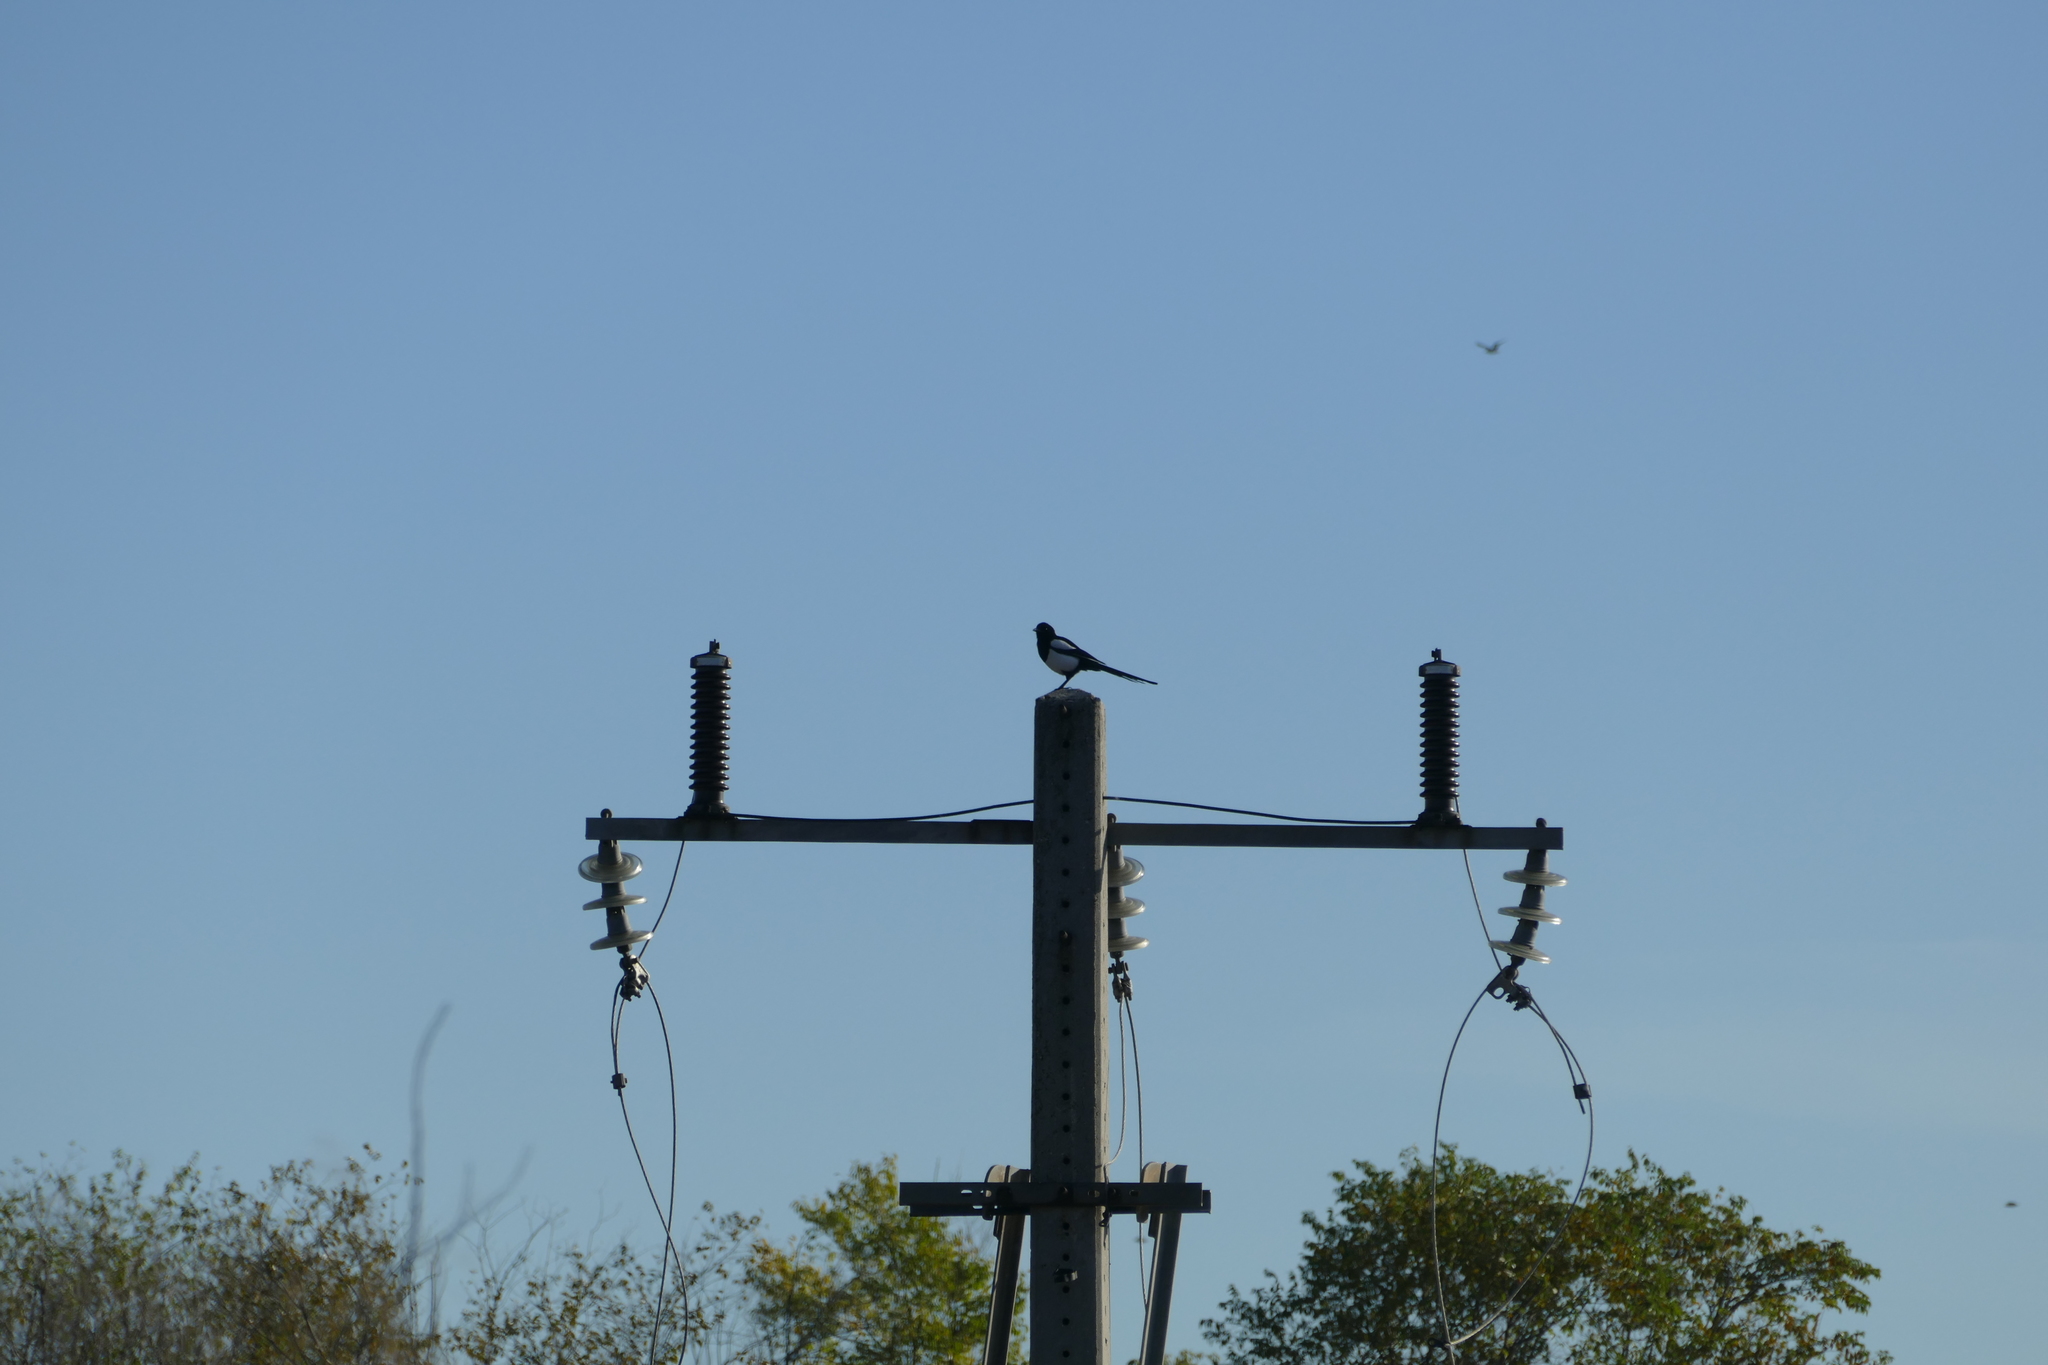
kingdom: Animalia
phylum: Chordata
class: Aves
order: Passeriformes
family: Corvidae
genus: Pica
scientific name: Pica pica
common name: Eurasian magpie
